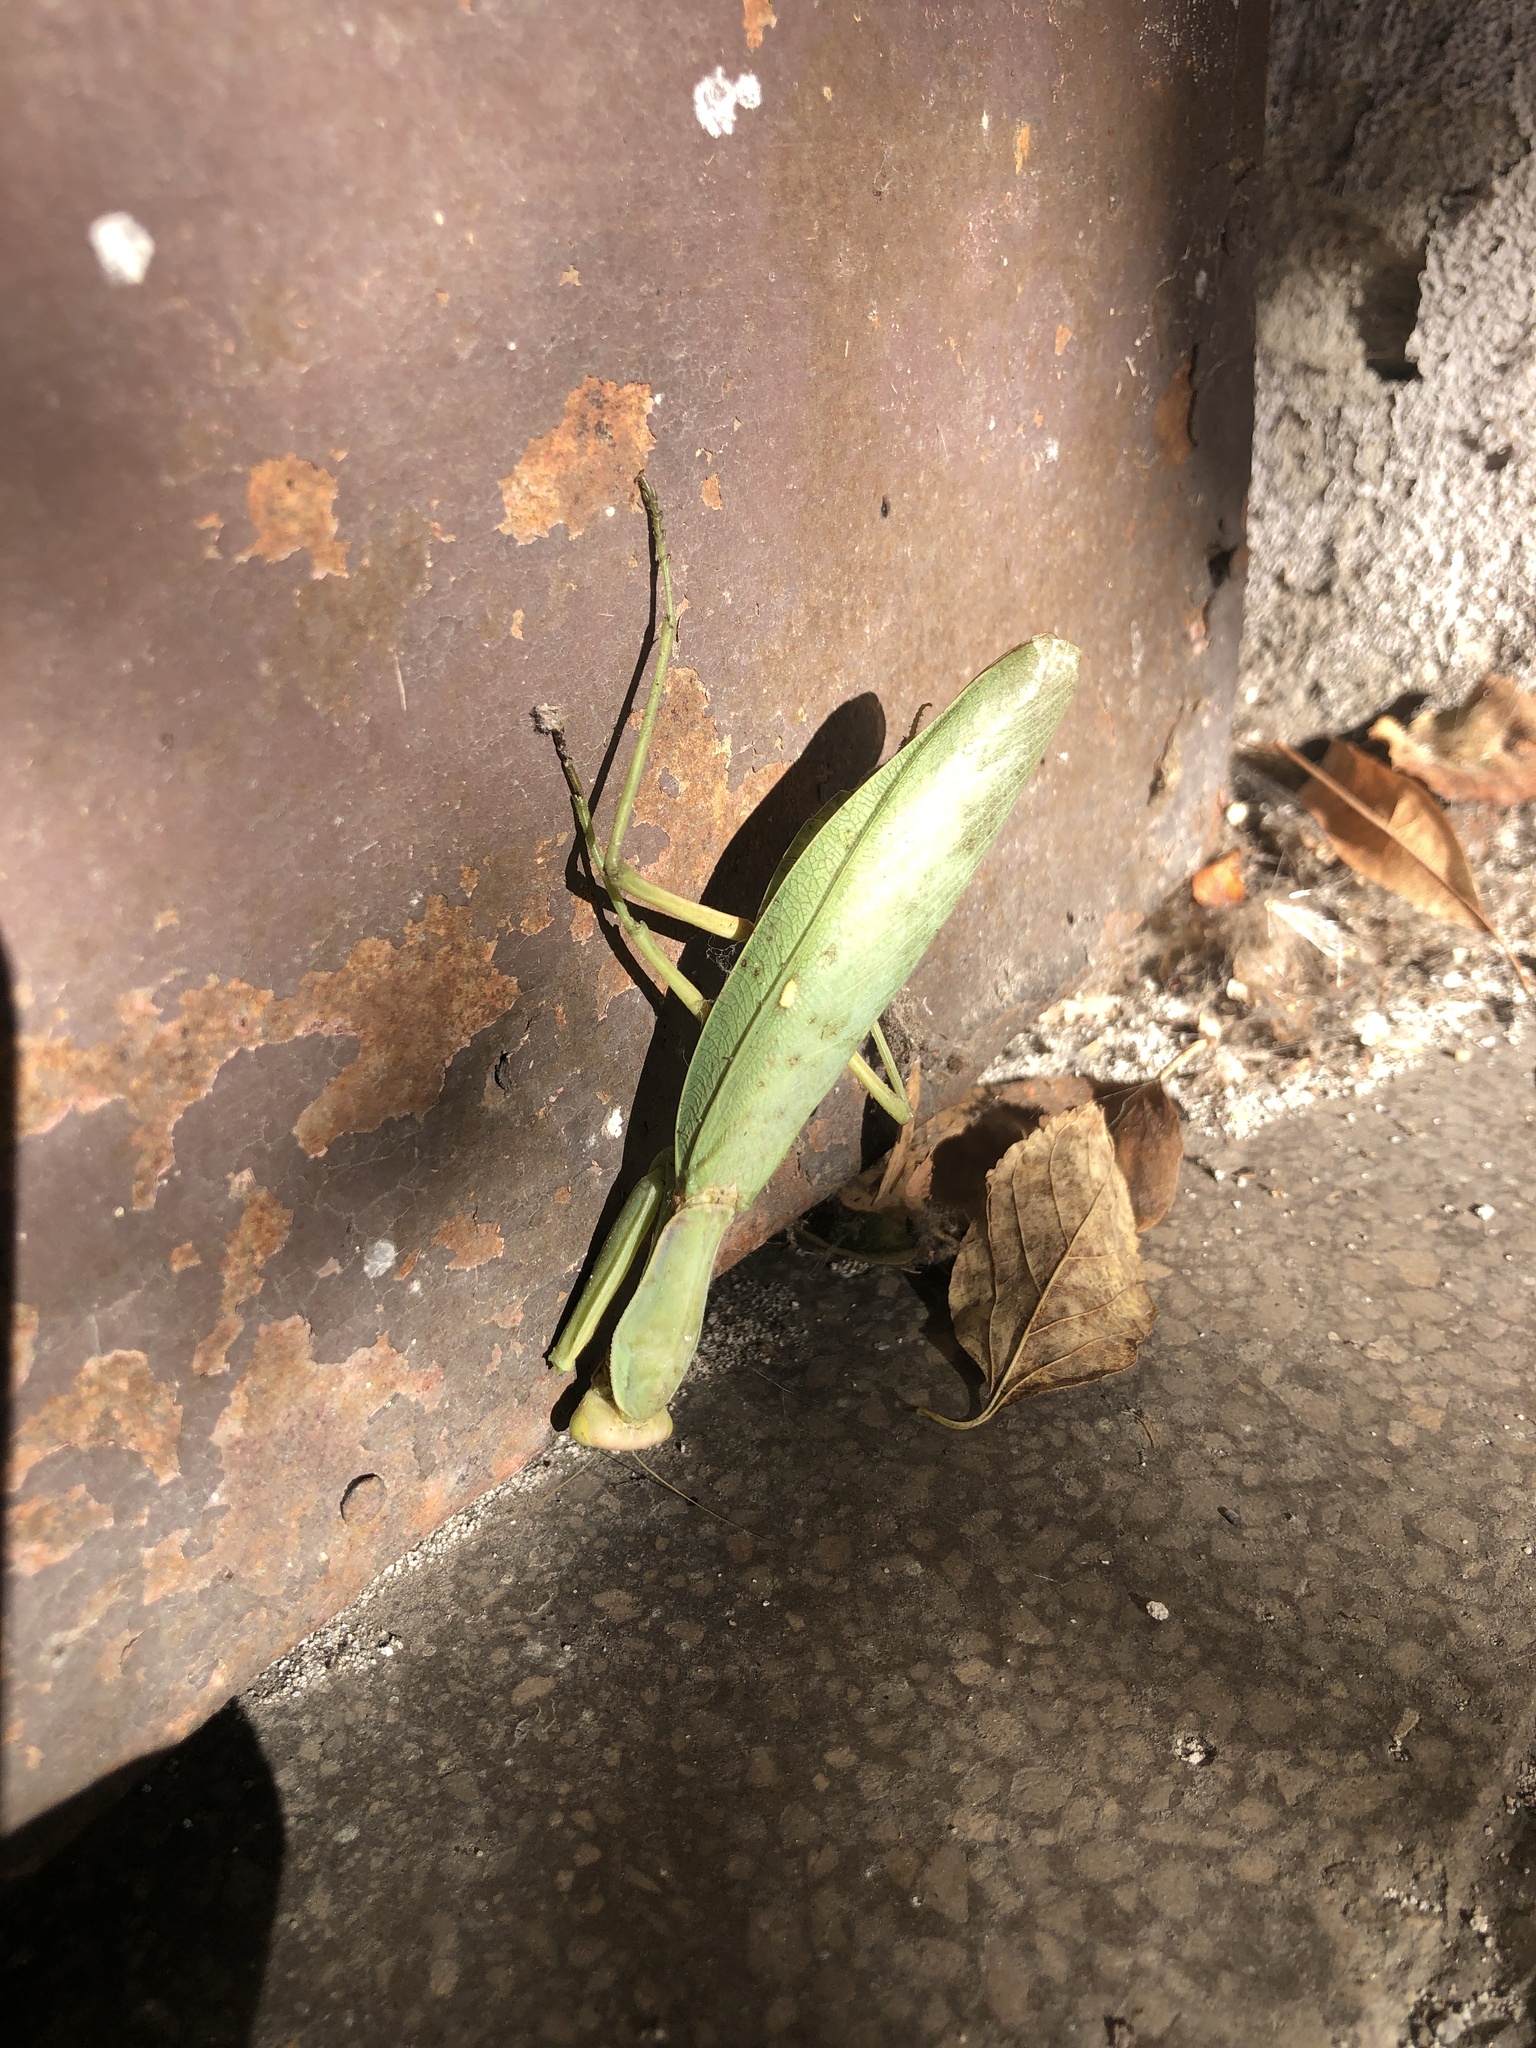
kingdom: Animalia
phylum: Arthropoda
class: Insecta
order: Mantodea
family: Mantidae
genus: Hierodula
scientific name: Hierodula transcaucasica
